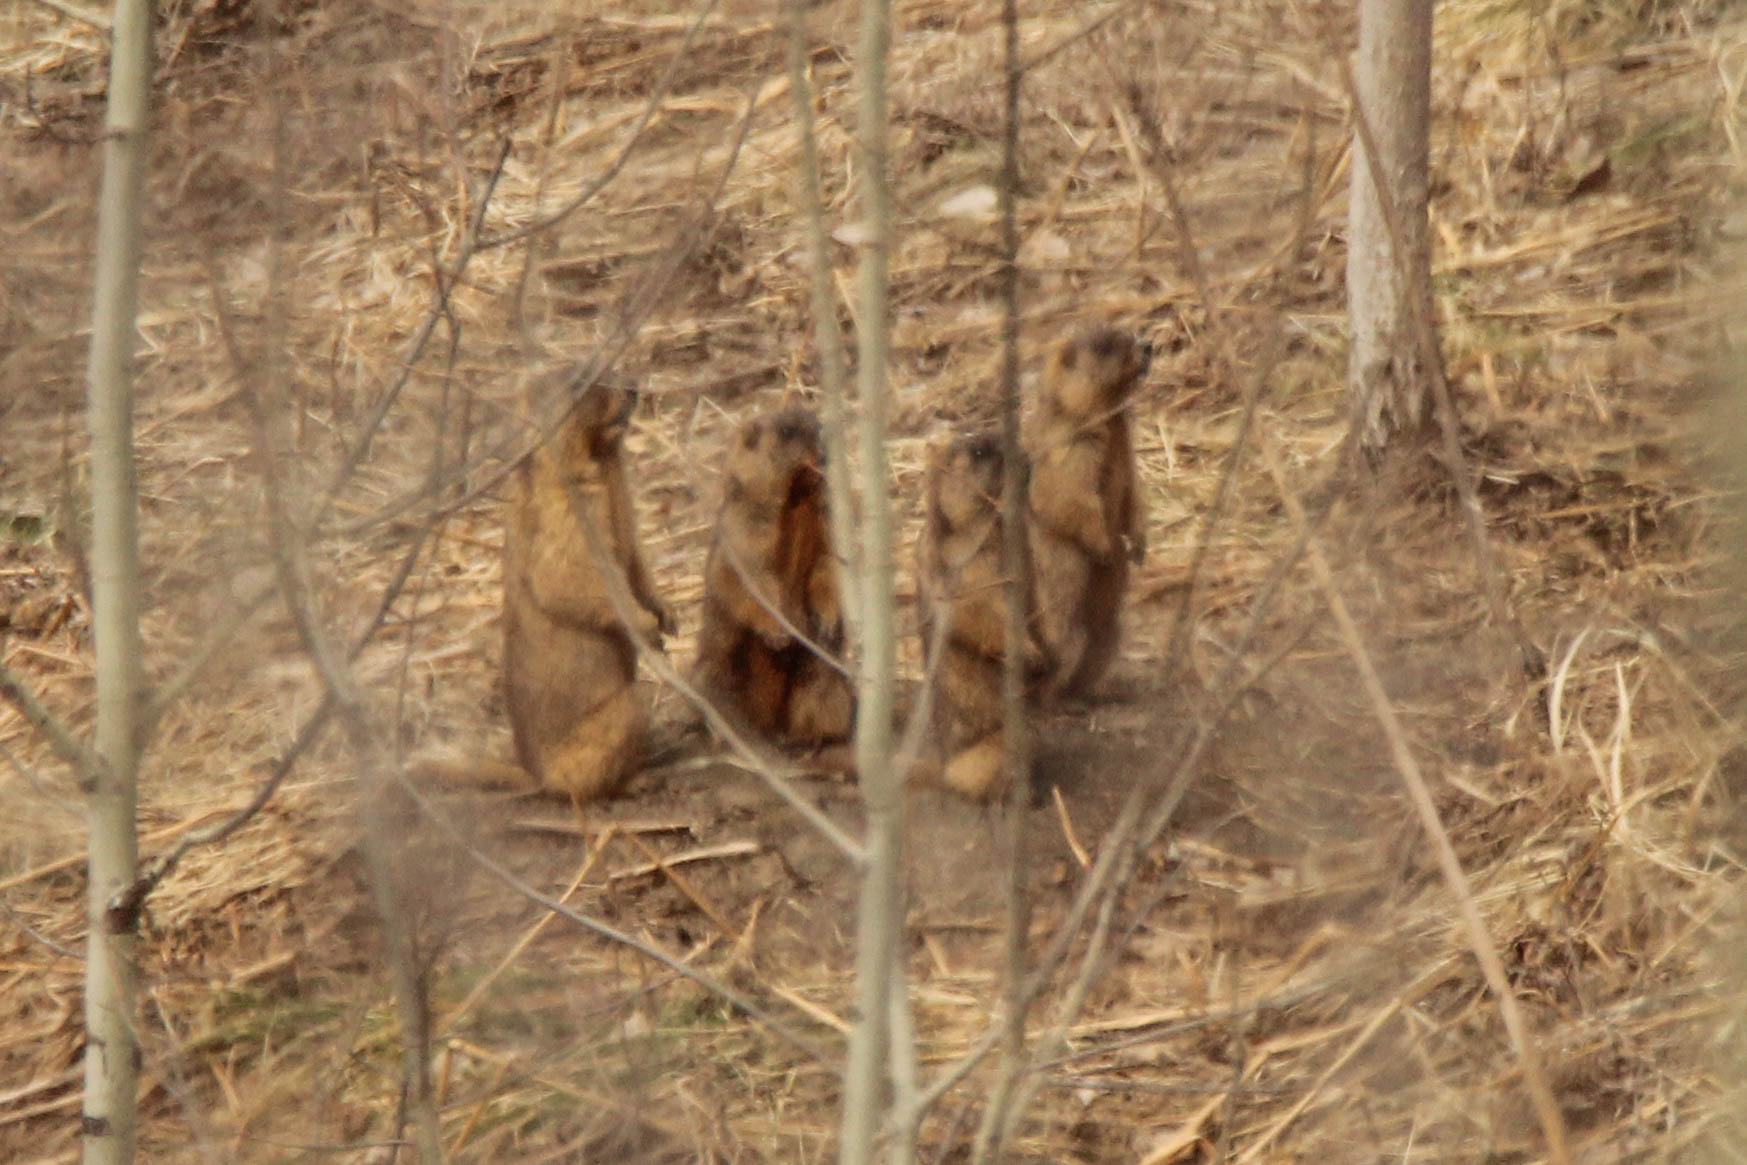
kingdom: Animalia
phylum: Chordata
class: Mammalia
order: Rodentia
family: Sciuridae
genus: Marmota
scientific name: Marmota kastschenkoi
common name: Forest steppe marmot
